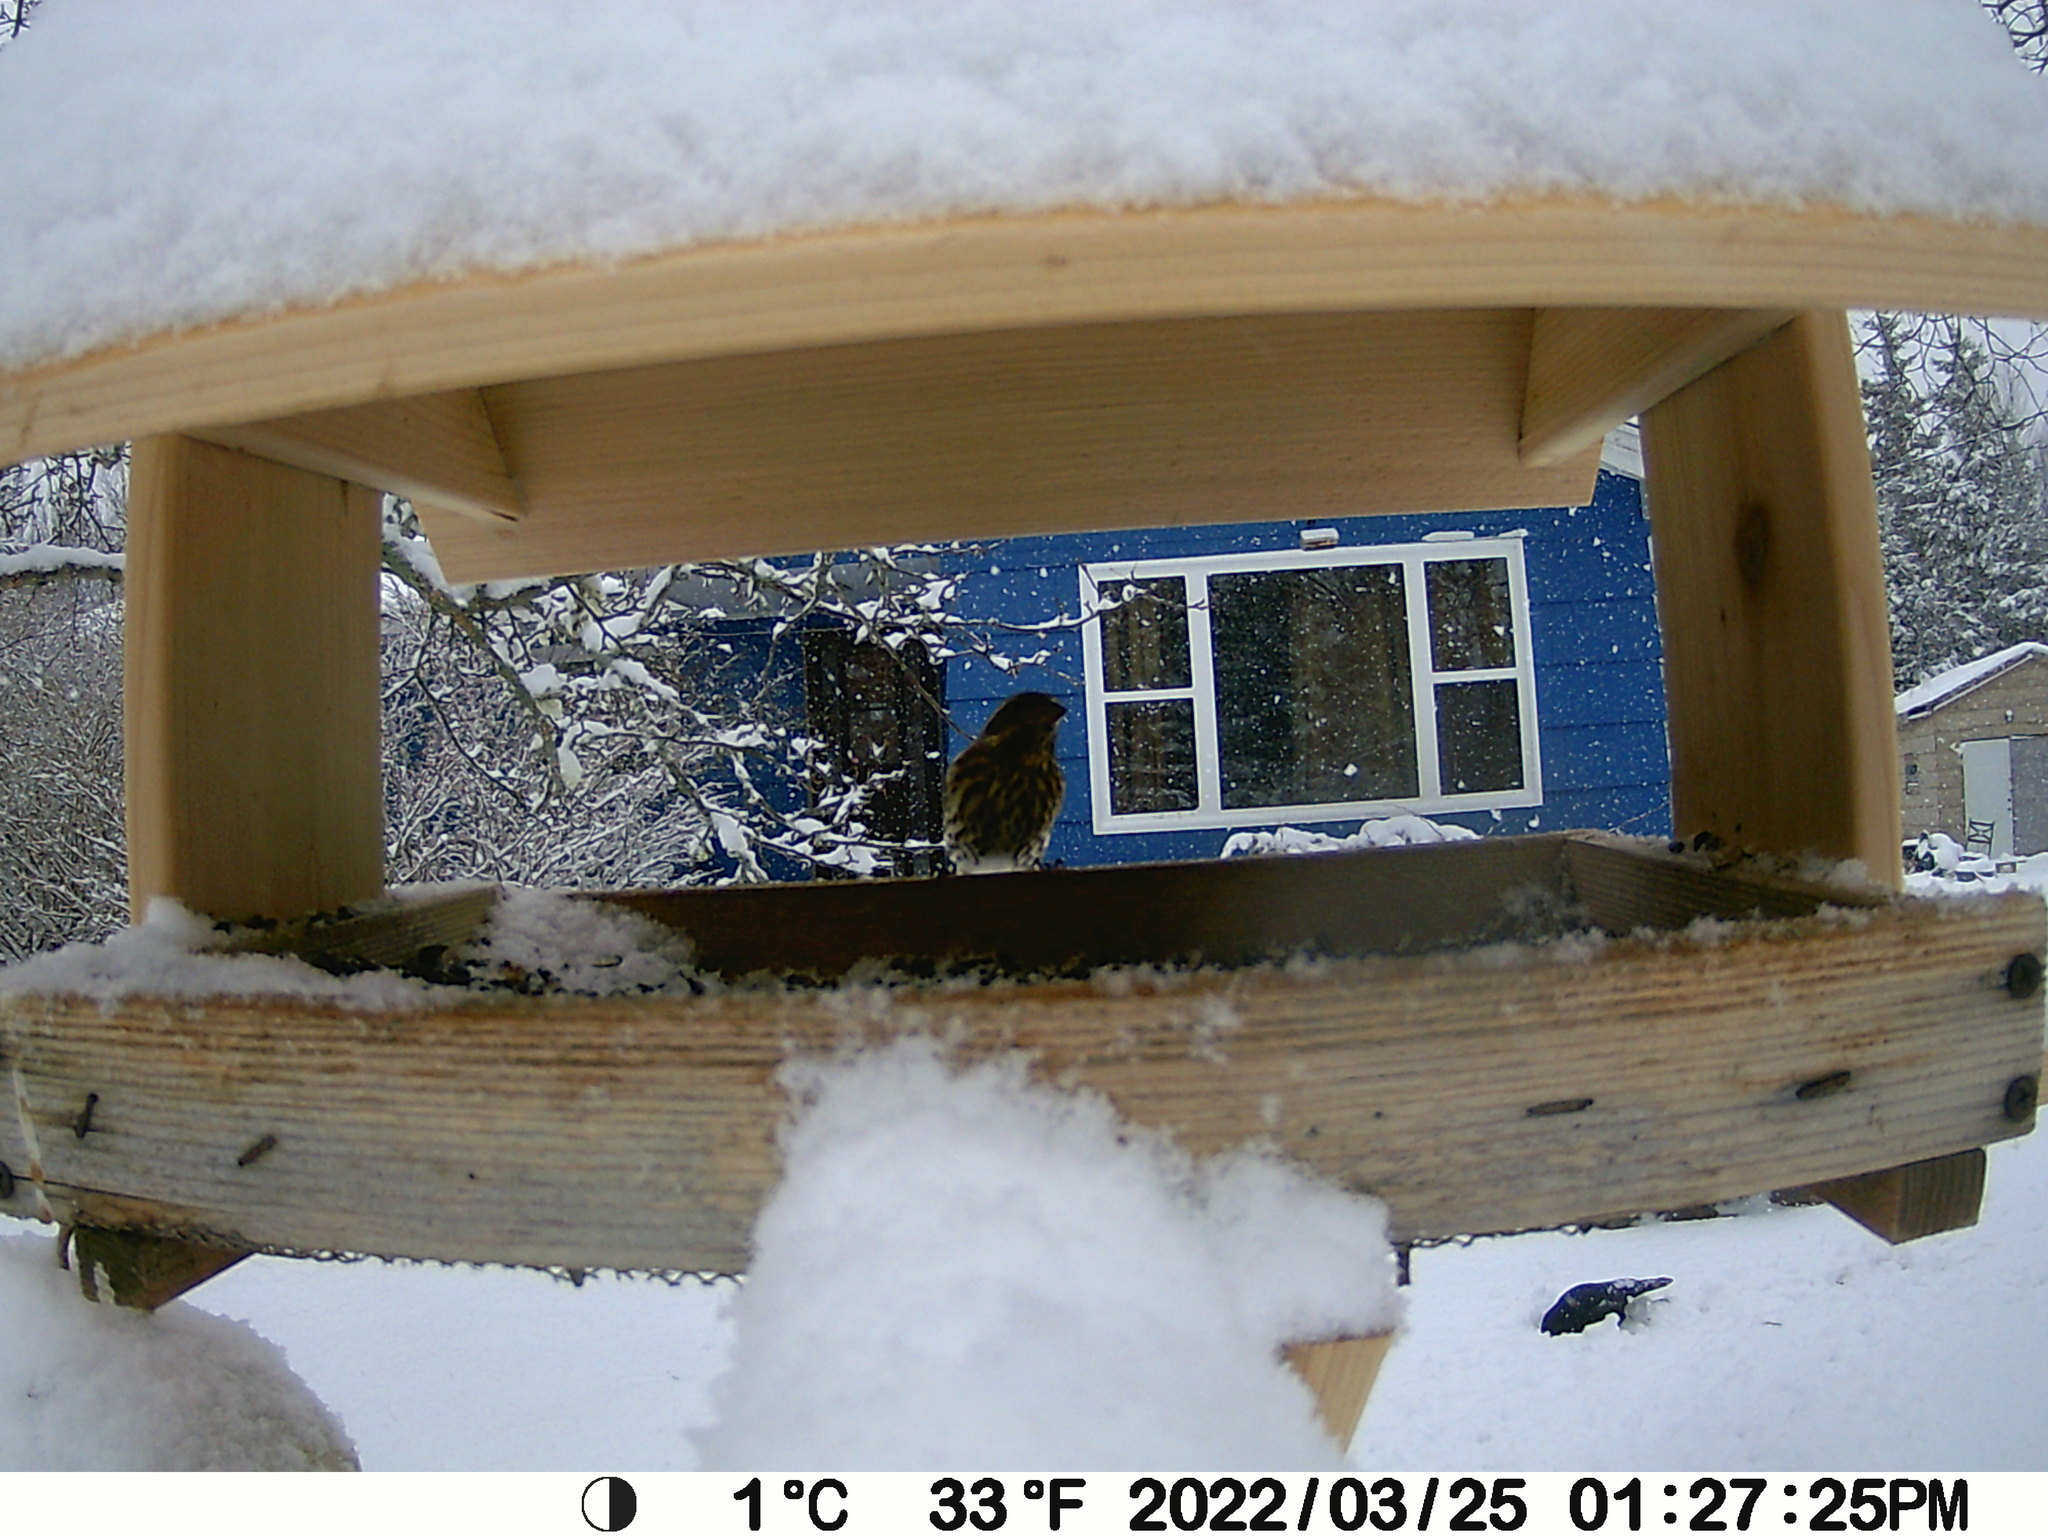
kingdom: Animalia
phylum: Chordata
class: Aves
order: Passeriformes
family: Fringillidae
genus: Haemorhous
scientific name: Haemorhous purpureus
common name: Purple finch
